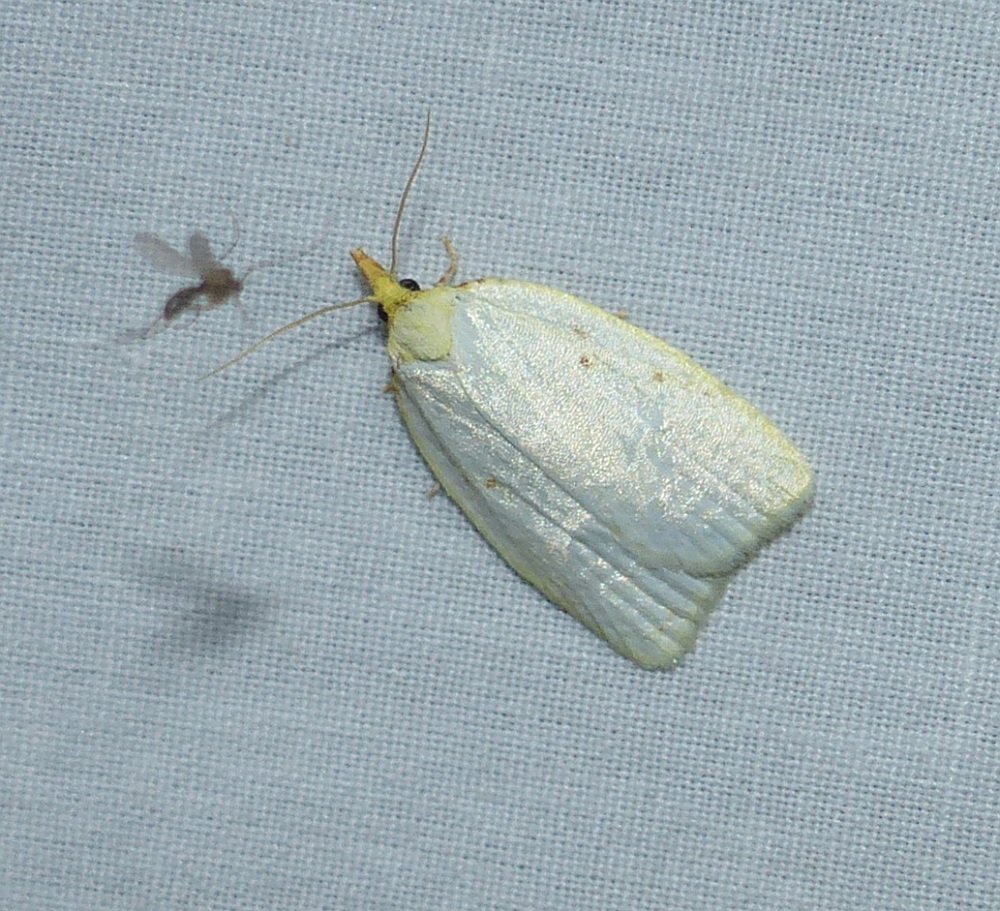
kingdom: Animalia
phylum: Arthropoda
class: Insecta
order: Lepidoptera
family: Tortricidae
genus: Cenopis
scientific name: Cenopis pettitana
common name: Maple-basswood leafroller moth
